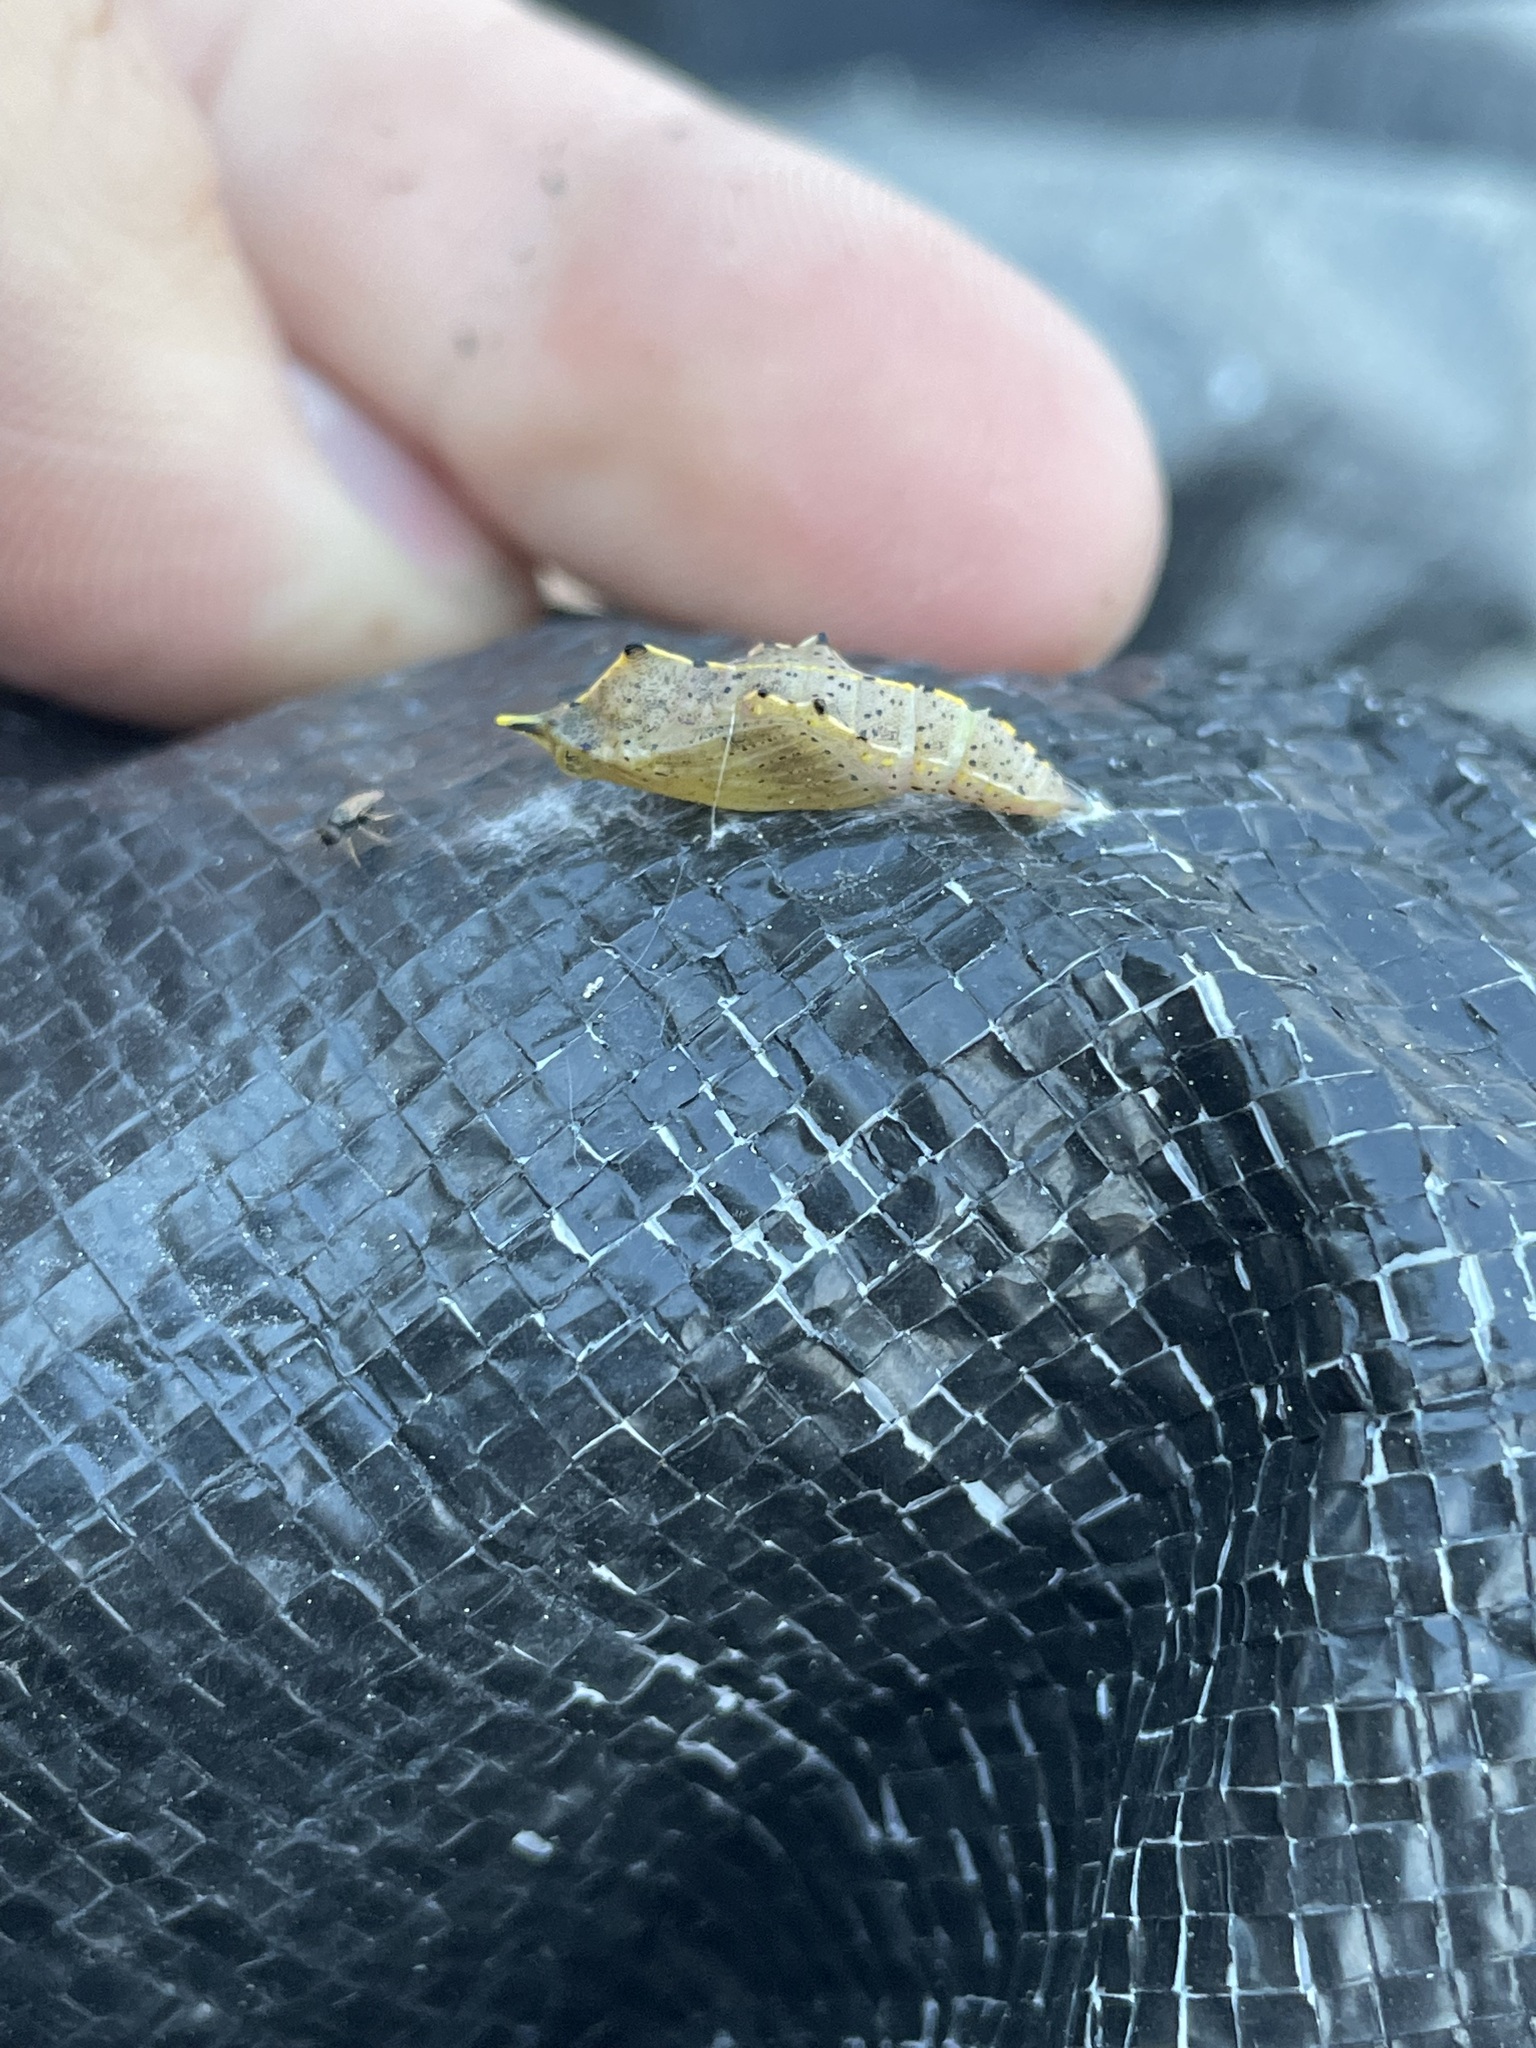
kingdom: Animalia
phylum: Arthropoda
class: Insecta
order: Lepidoptera
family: Pieridae
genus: Pieris
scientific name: Pieris rapae
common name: Small white
